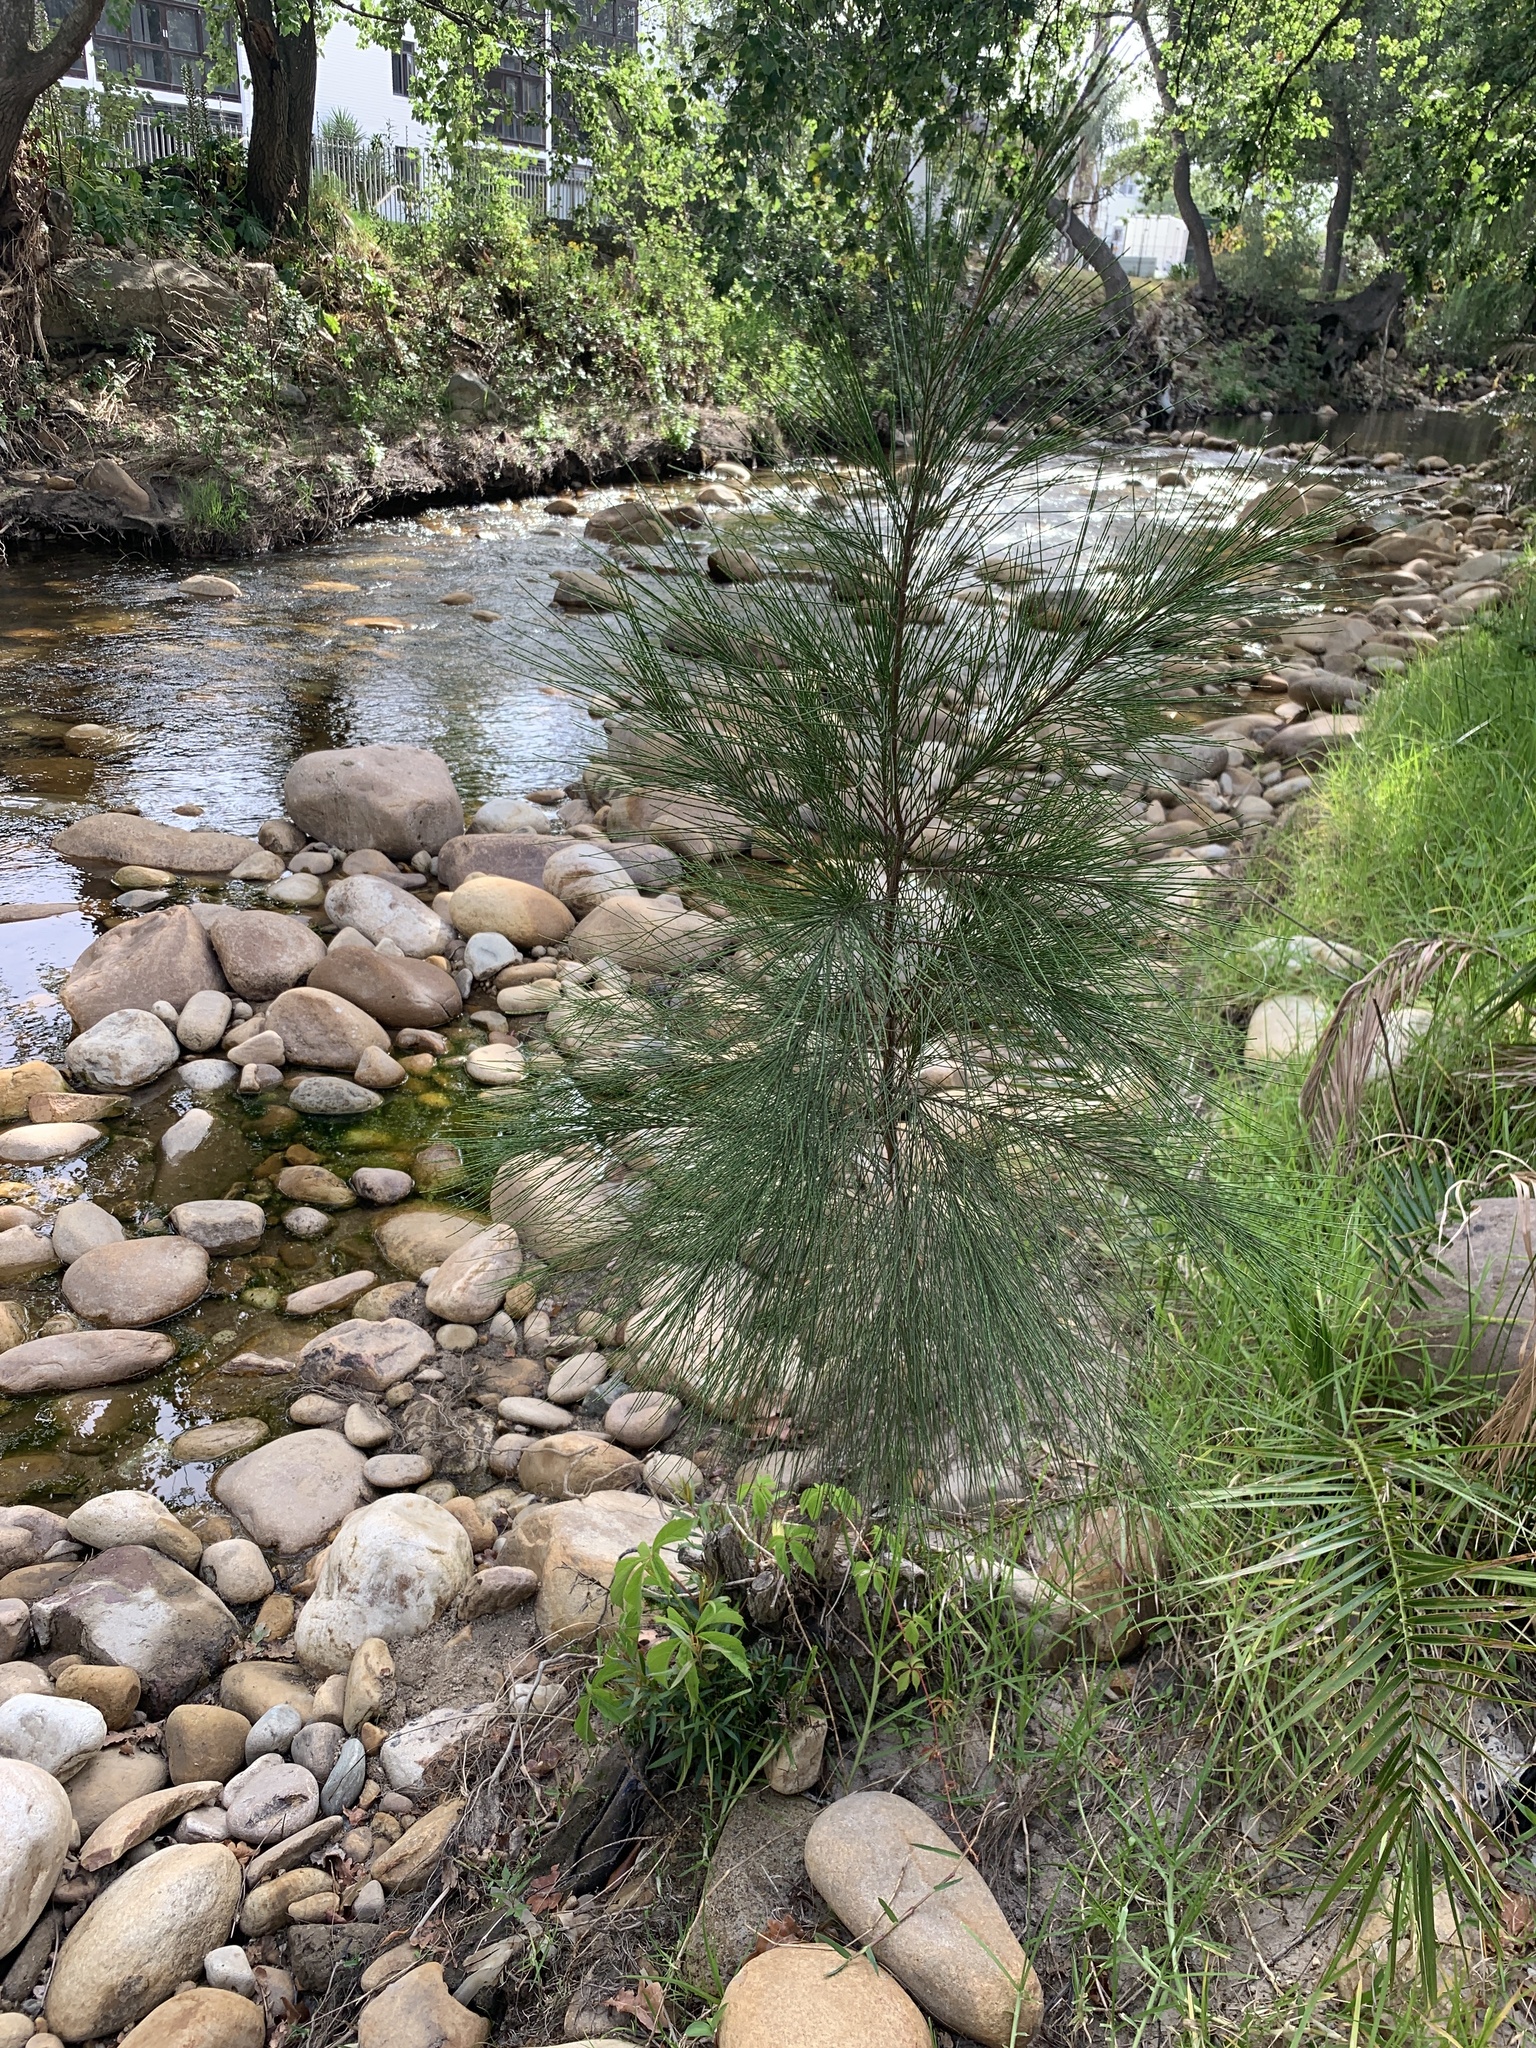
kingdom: Plantae
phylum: Tracheophyta
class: Magnoliopsida
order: Fagales
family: Casuarinaceae
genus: Casuarina
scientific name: Casuarina cunninghamiana
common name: River sheoak
